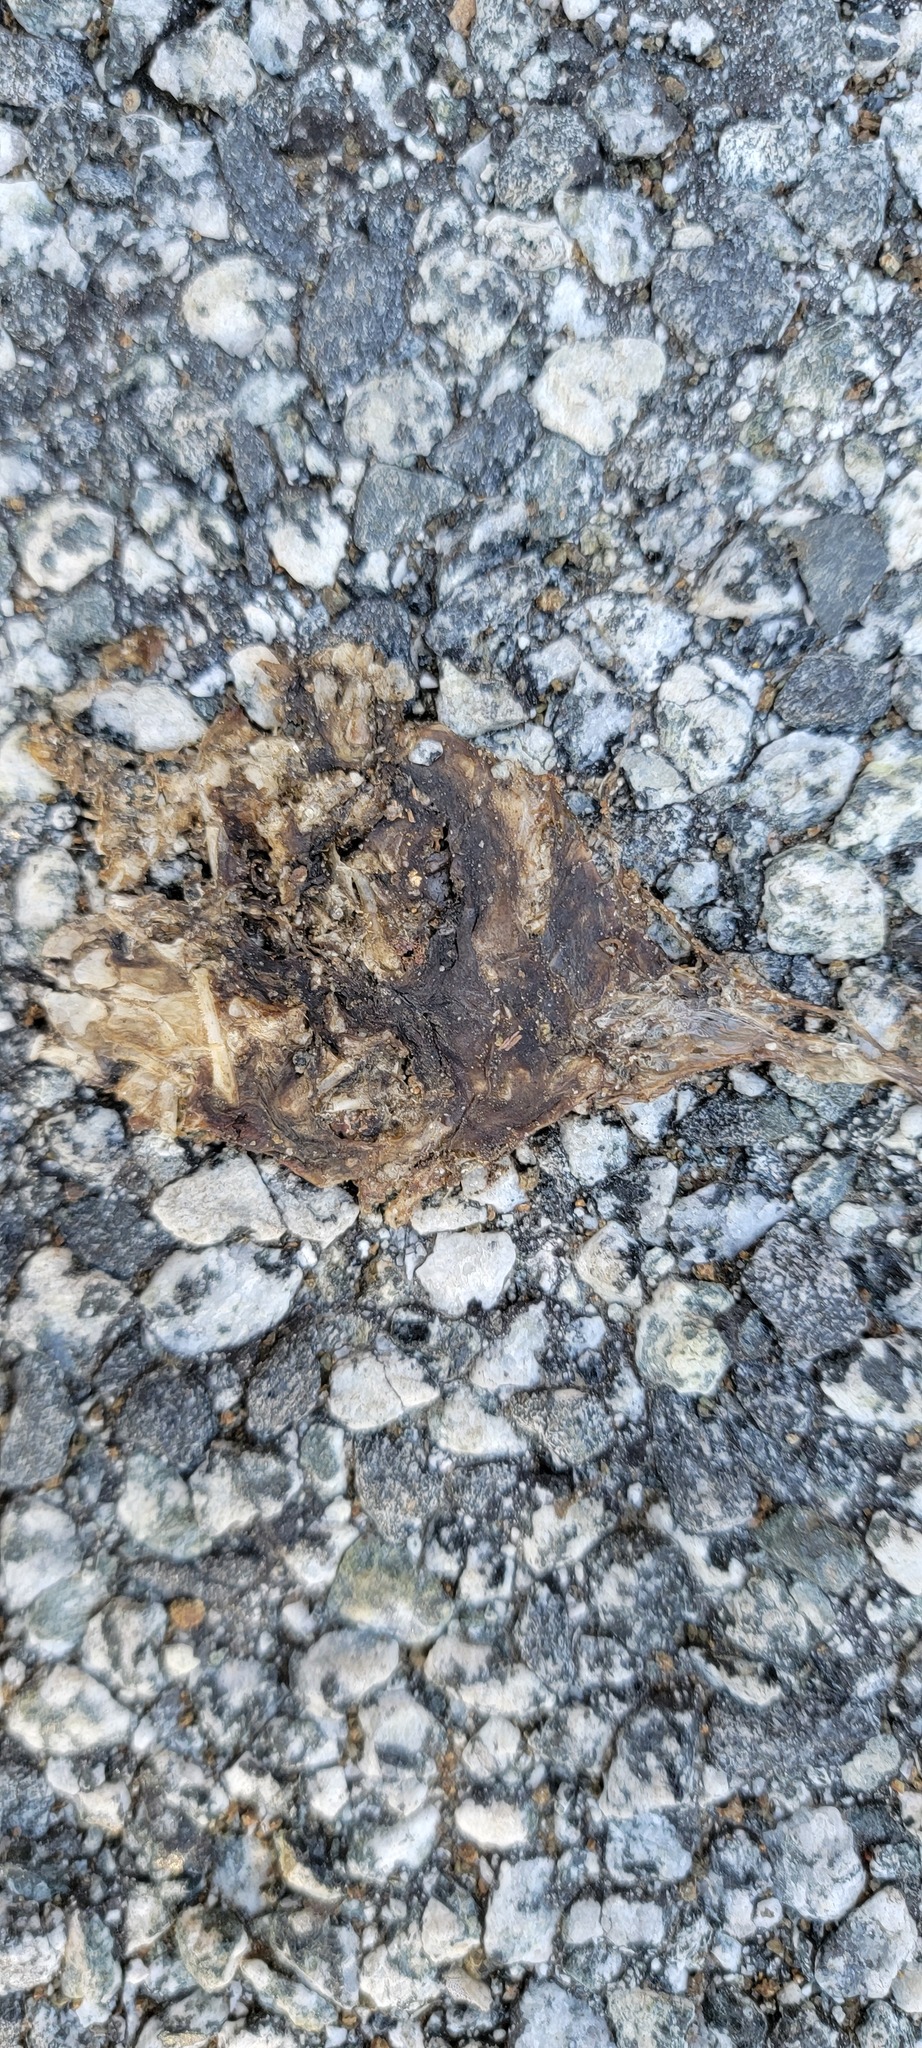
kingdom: Animalia
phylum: Chordata
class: Amphibia
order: Caudata
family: Salamandridae
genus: Taricha
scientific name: Taricha
